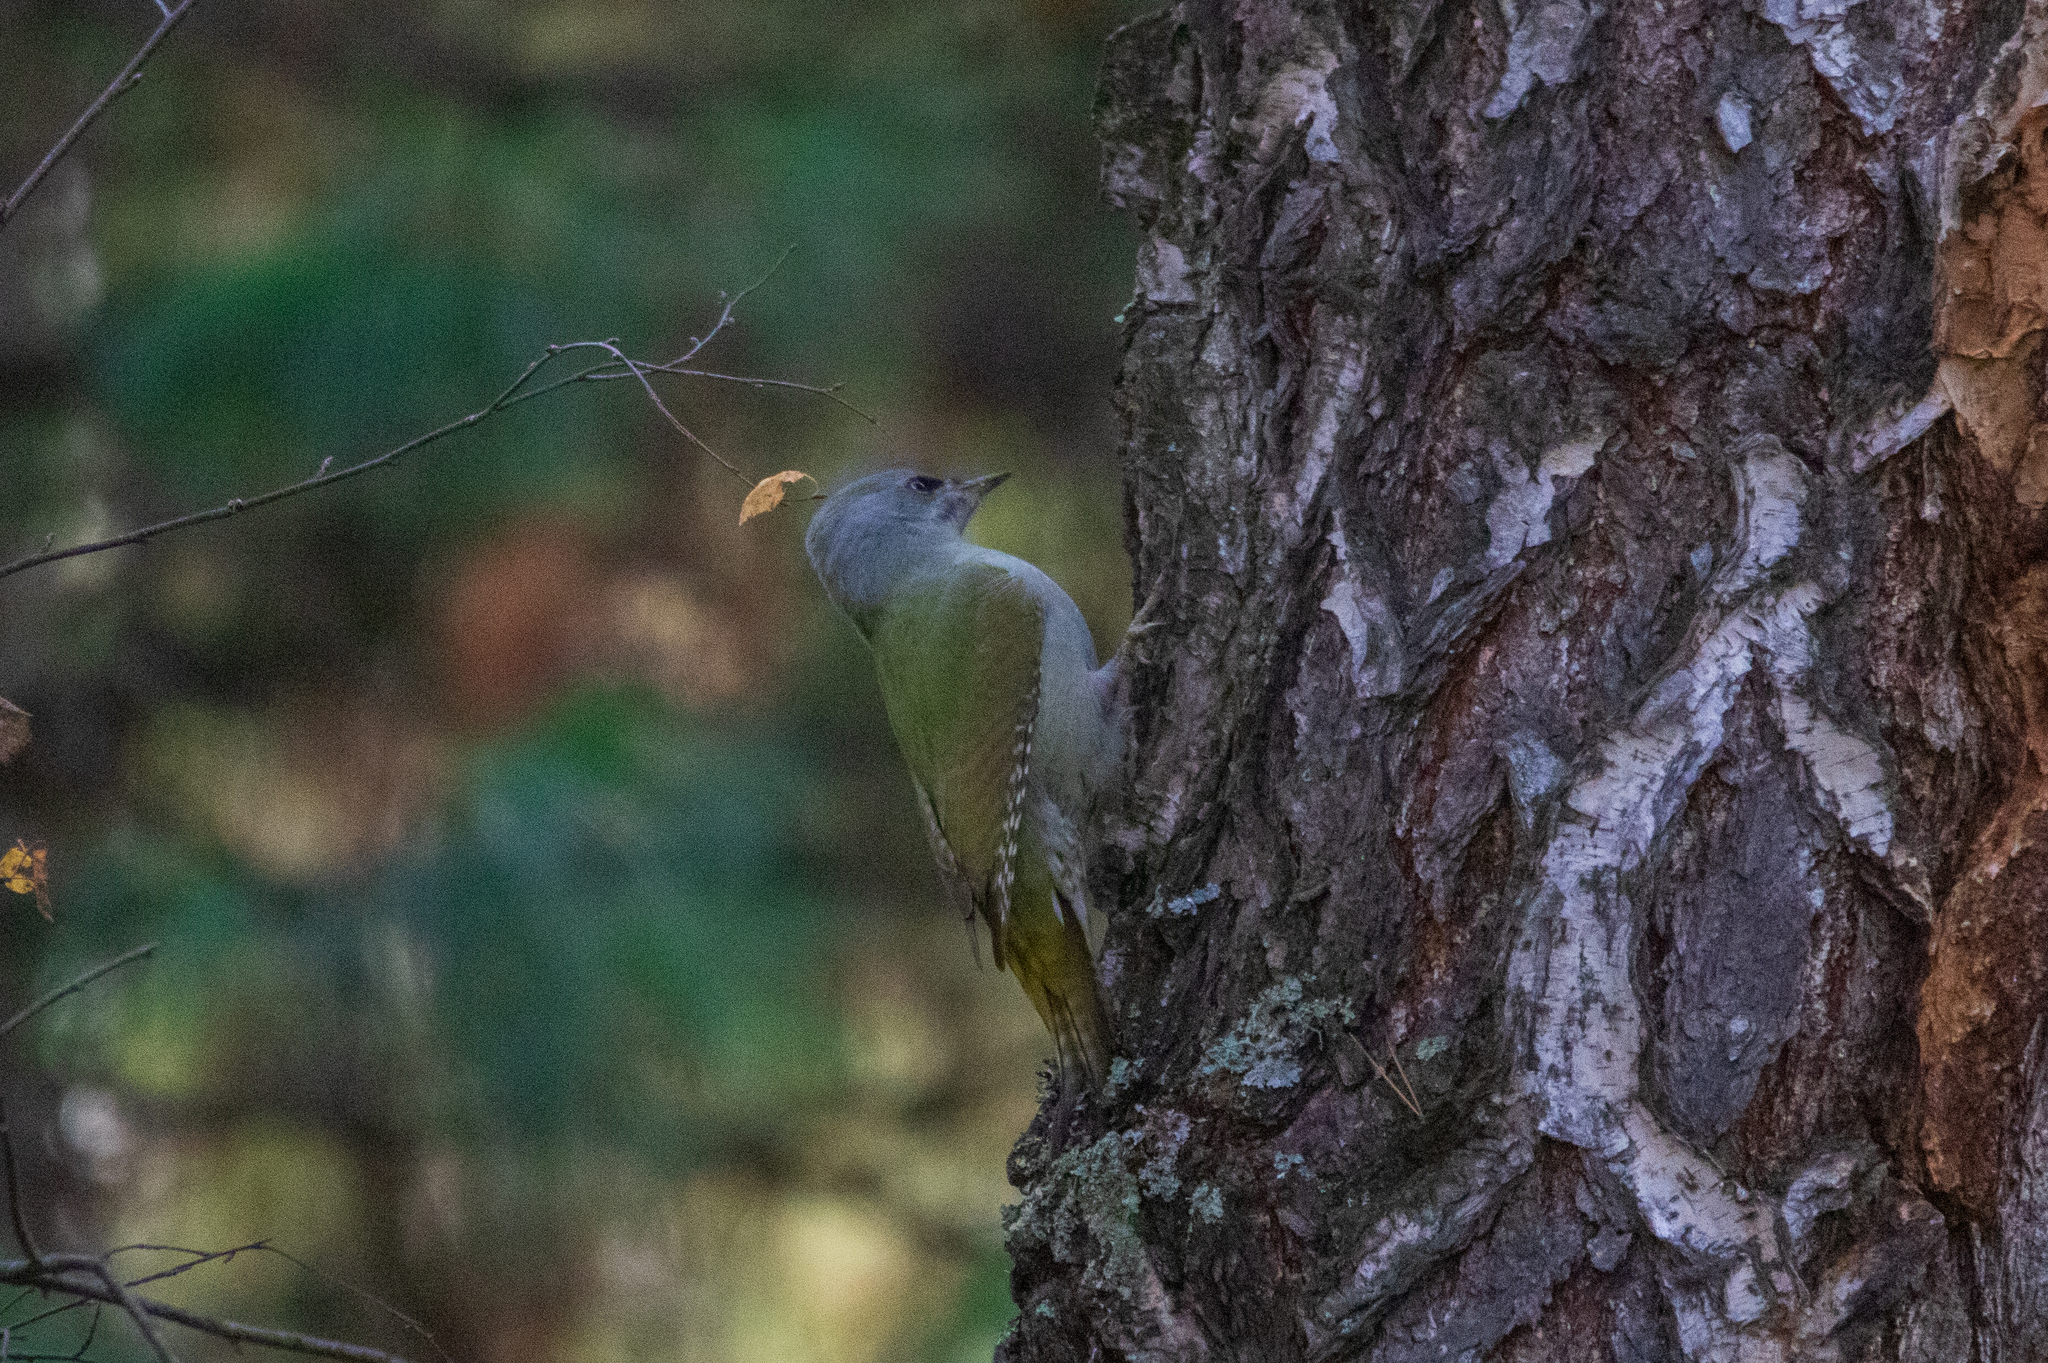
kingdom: Animalia
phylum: Chordata
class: Aves
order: Piciformes
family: Picidae
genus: Picus
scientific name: Picus canus
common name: Grey-headed woodpecker
